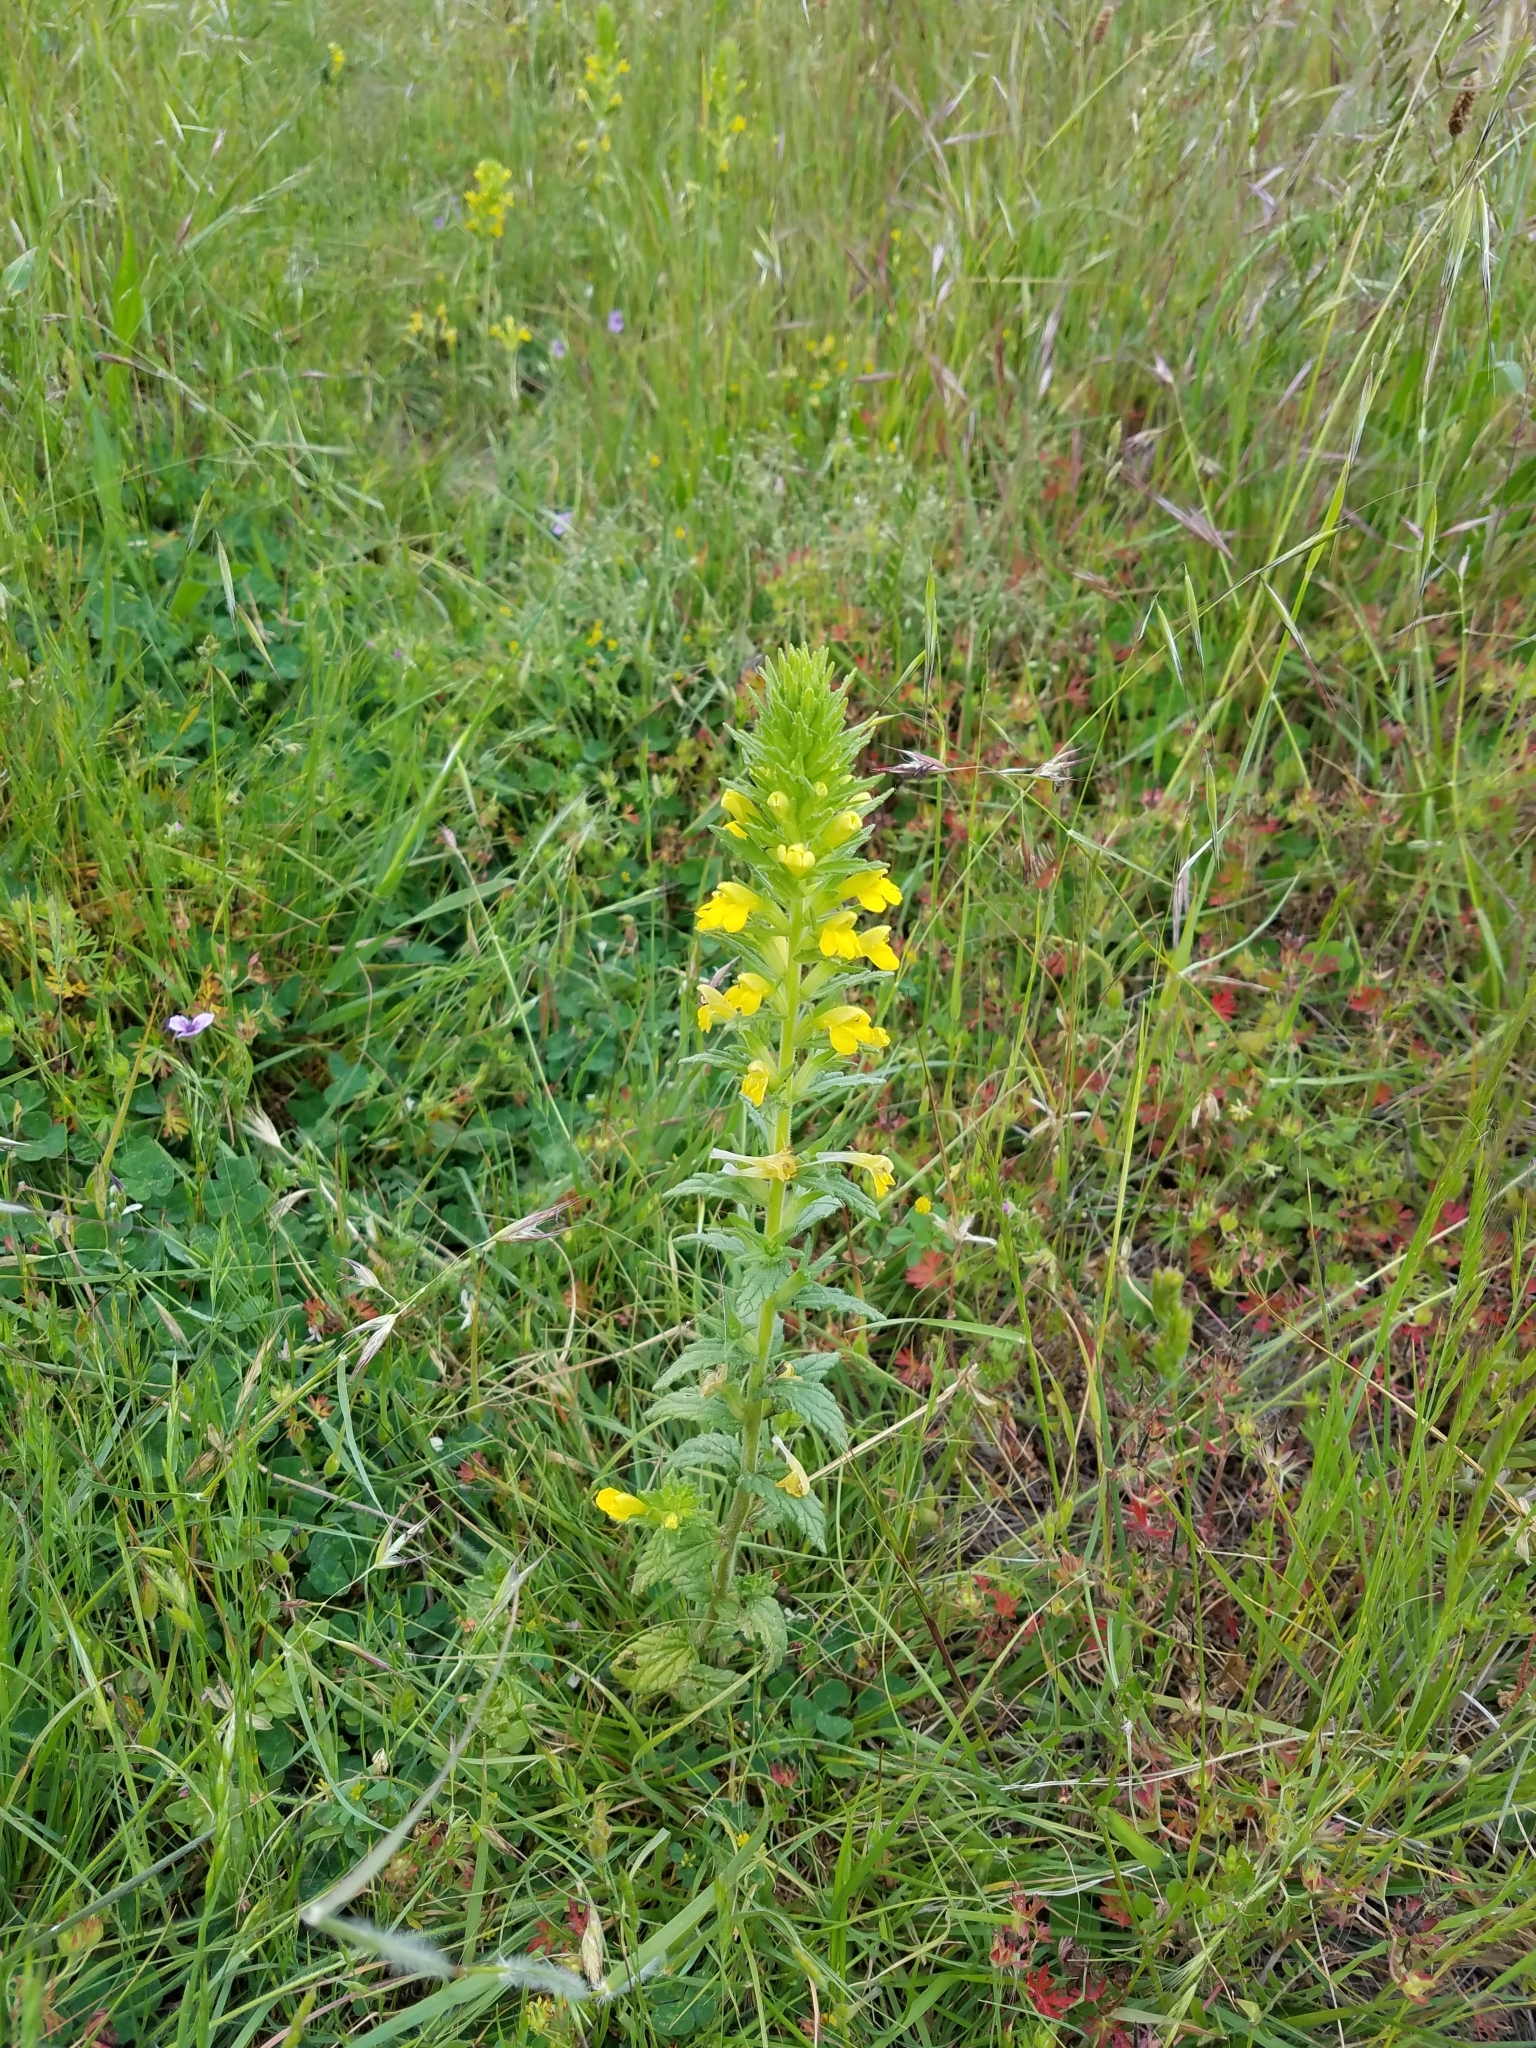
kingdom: Plantae
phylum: Tracheophyta
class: Magnoliopsida
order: Lamiales
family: Orobanchaceae
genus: Bellardia
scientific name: Bellardia viscosa
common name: Sticky parentucellia
